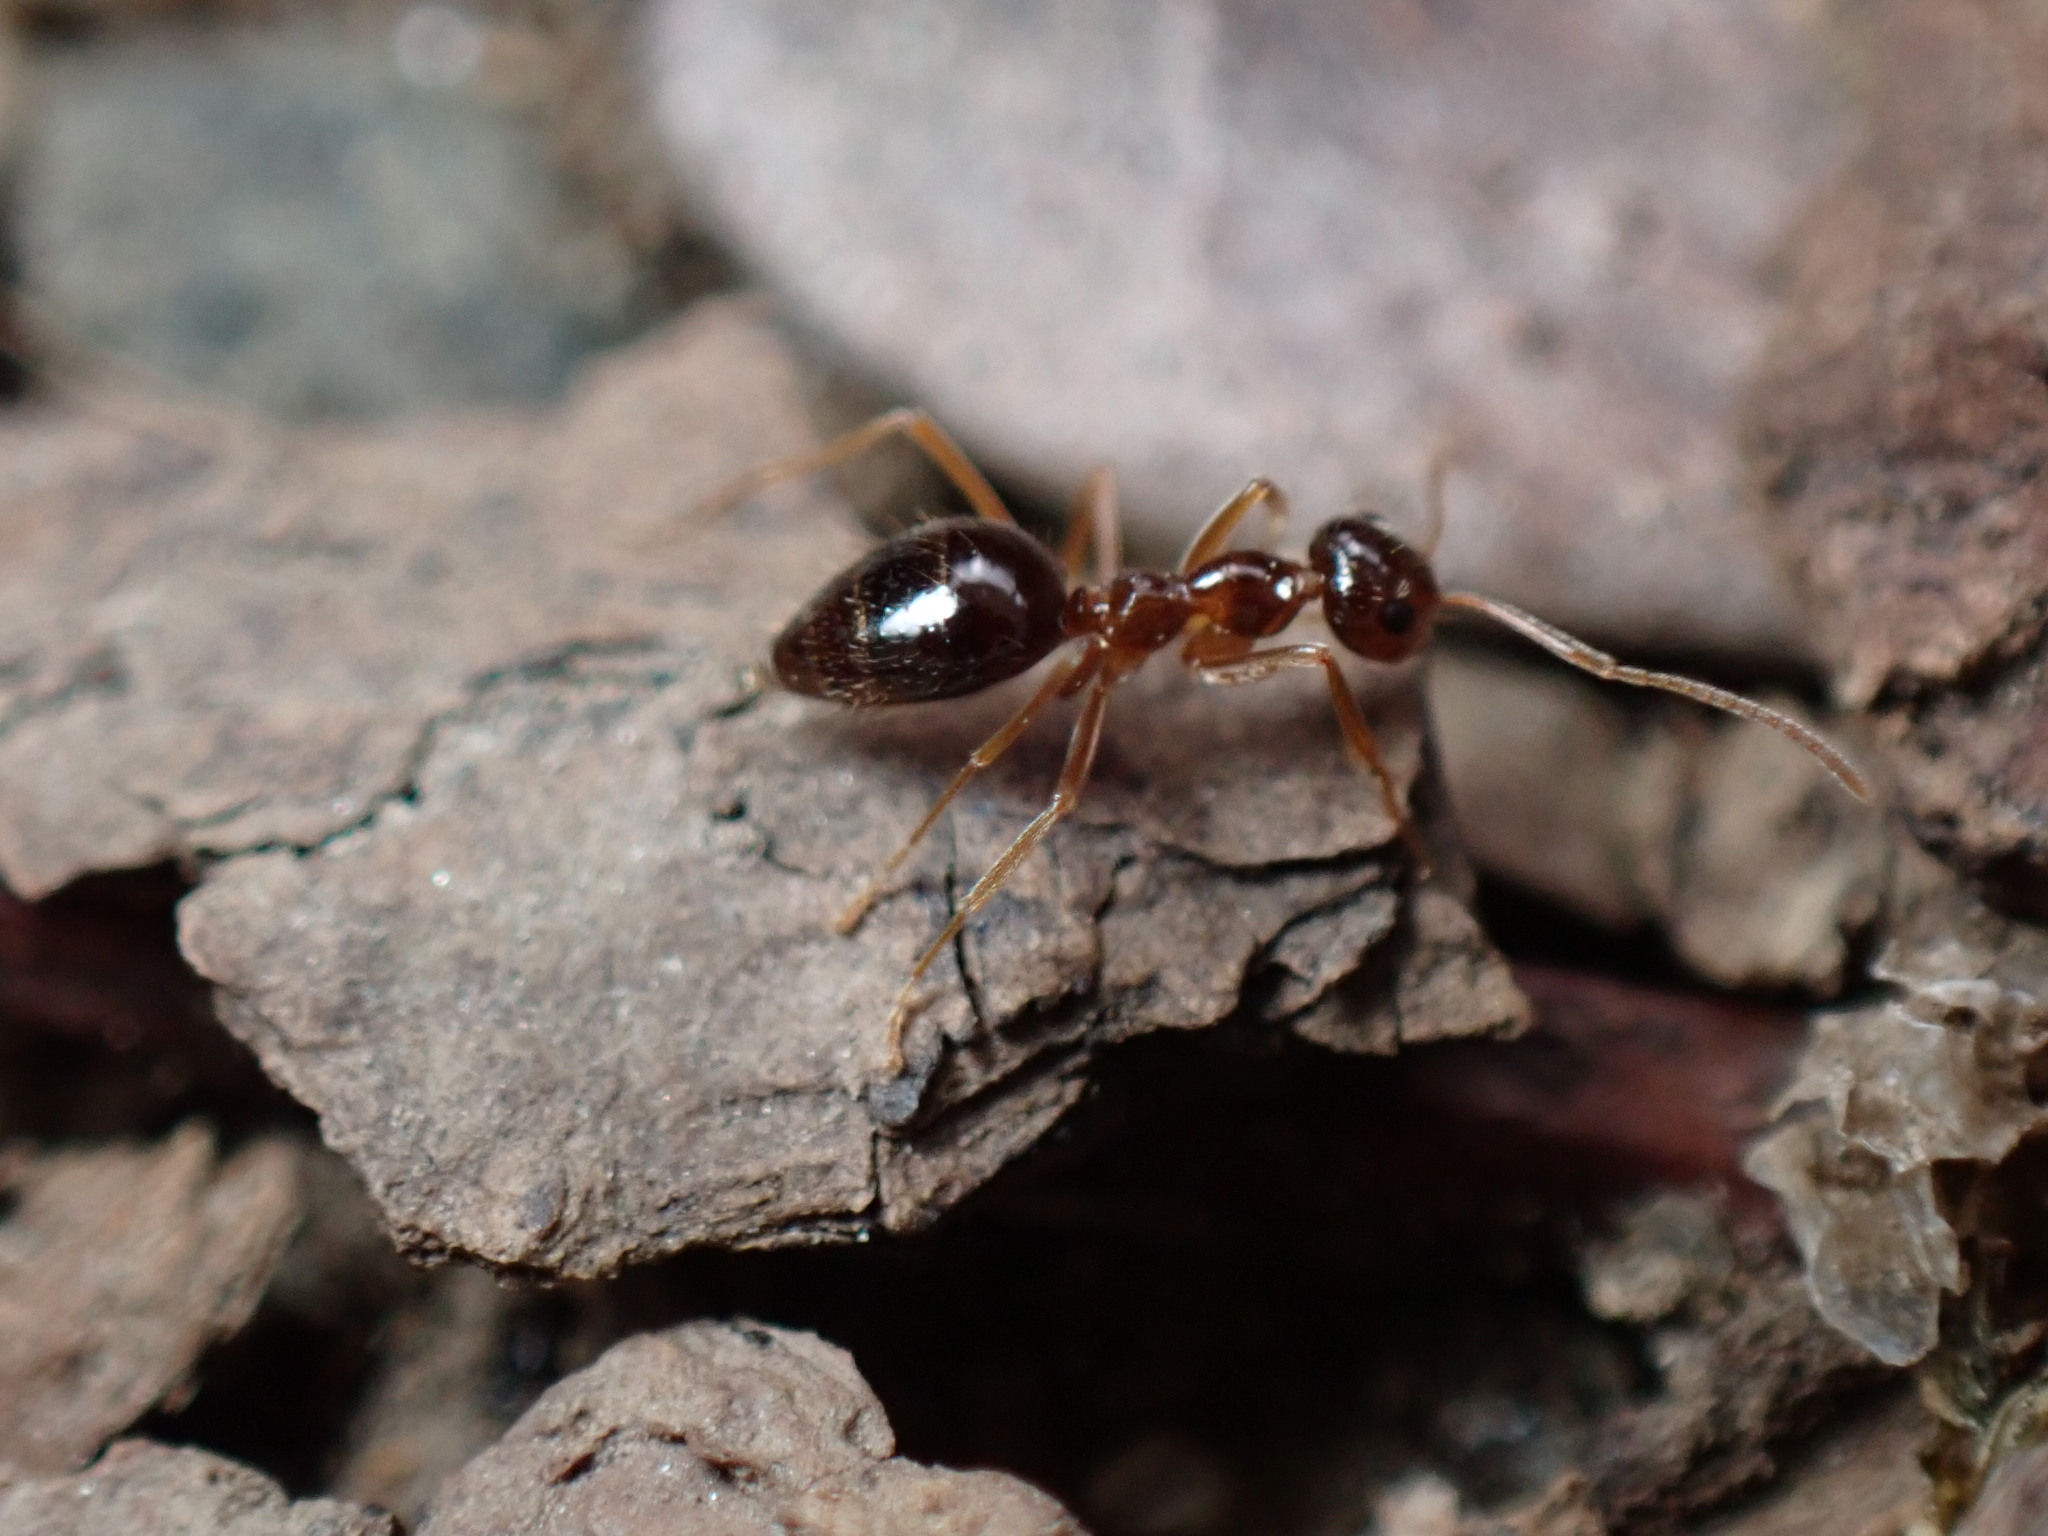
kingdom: Animalia
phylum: Arthropoda
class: Insecta
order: Hymenoptera
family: Formicidae
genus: Prenolepis
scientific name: Prenolepis imparis
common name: Small honey ant
